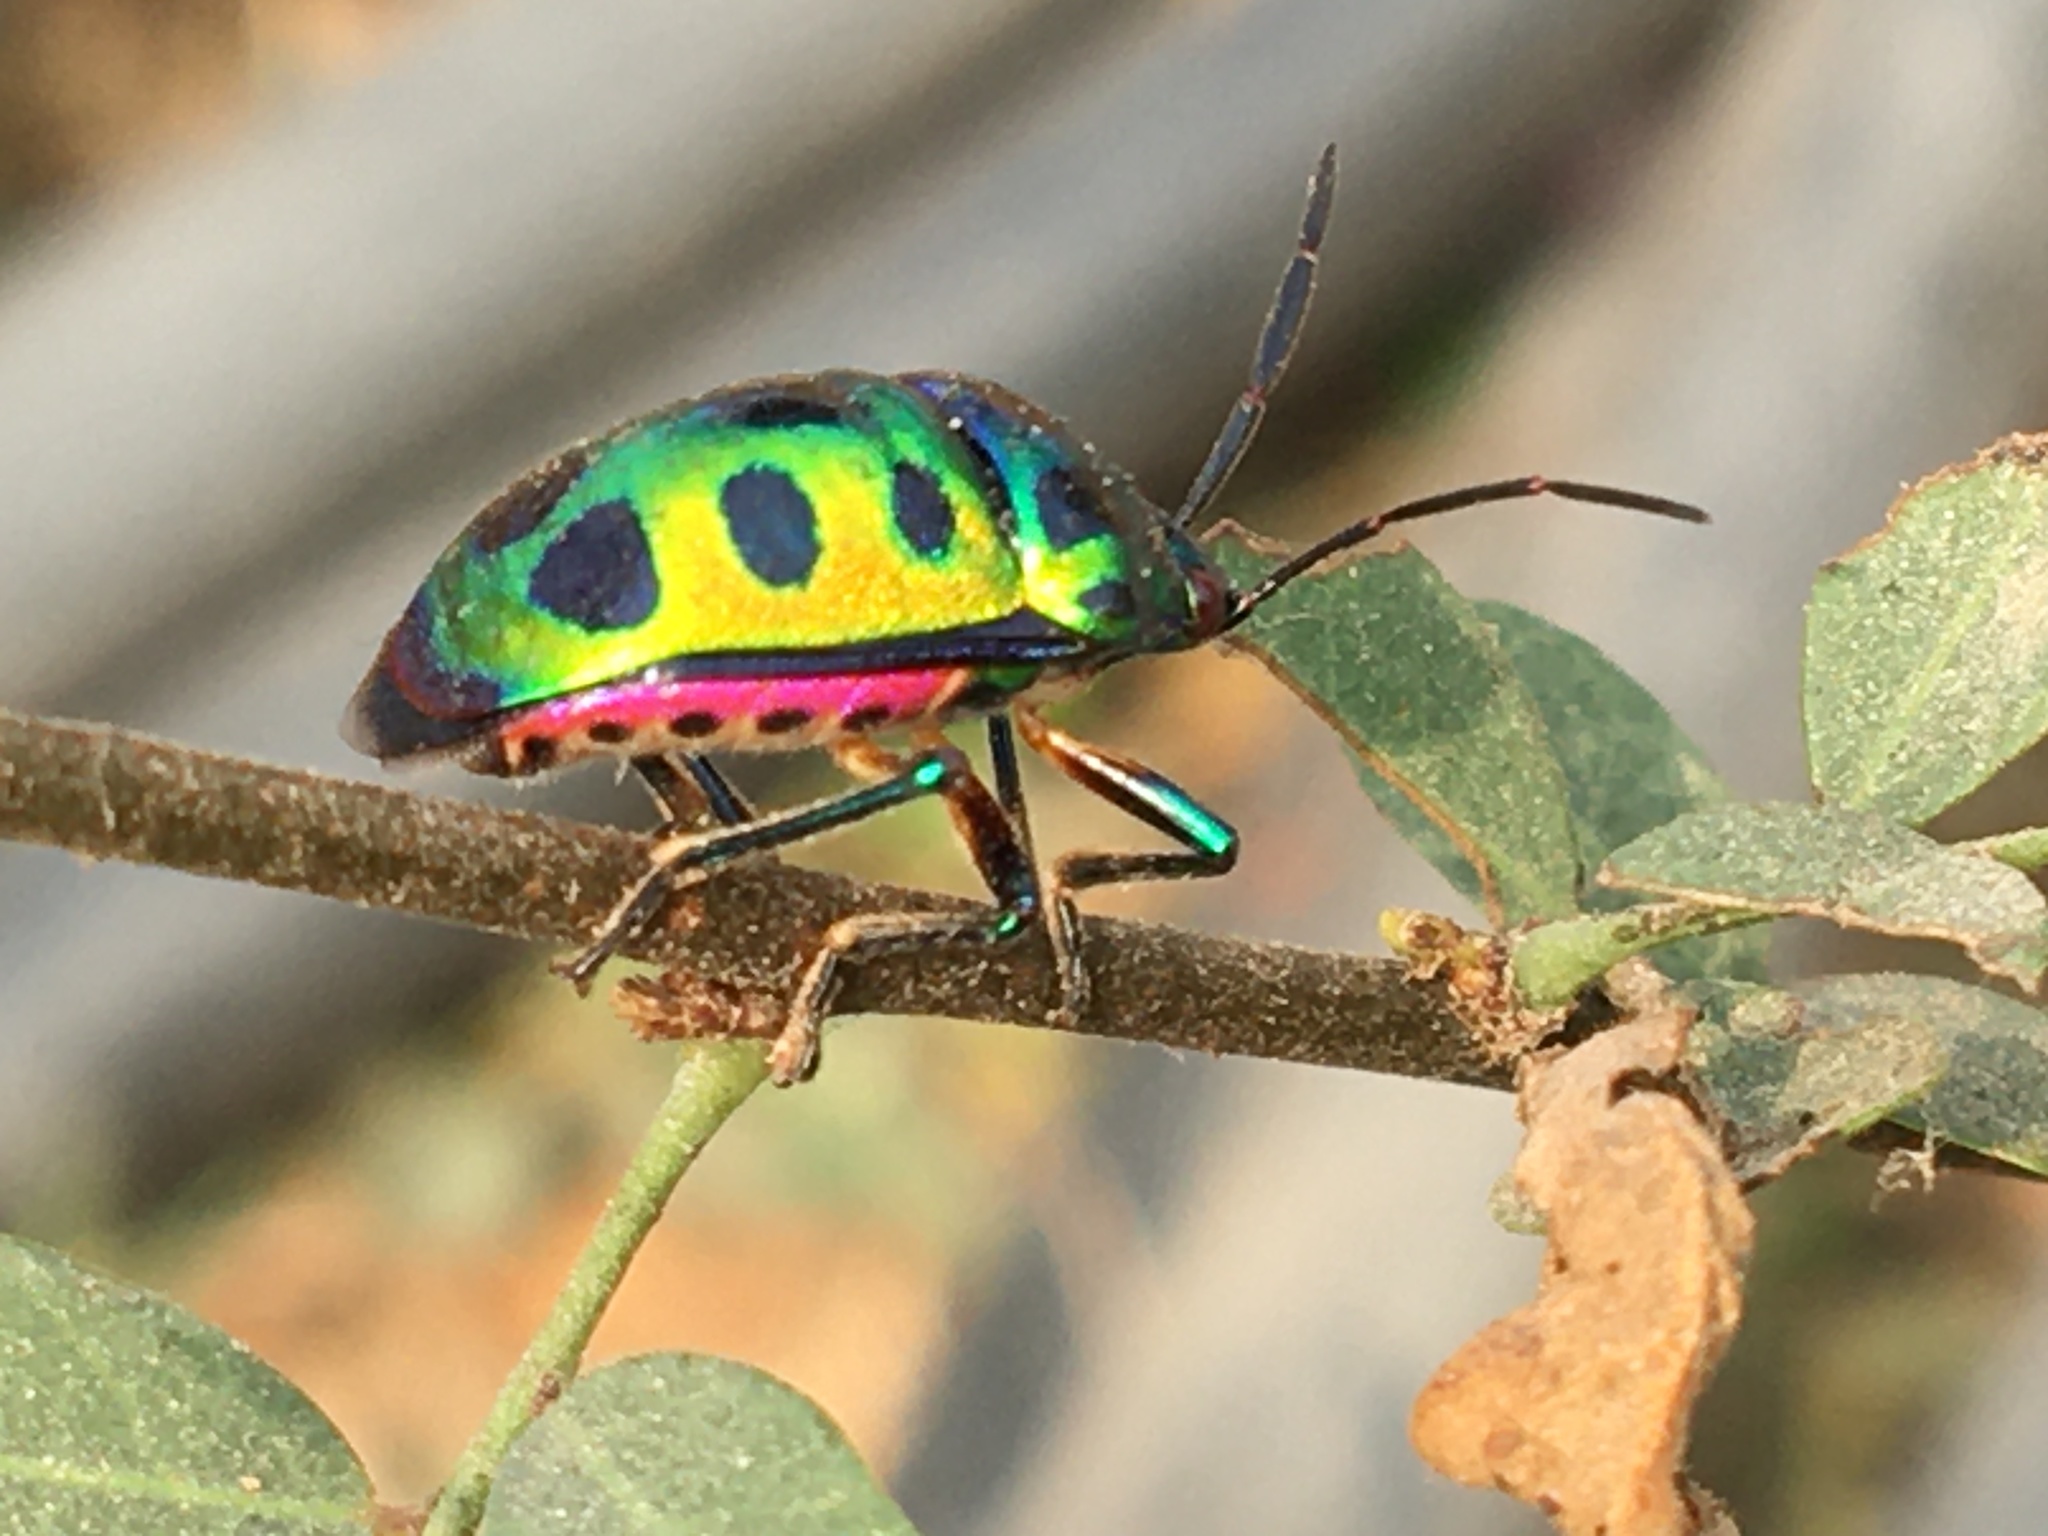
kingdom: Animalia
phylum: Arthropoda
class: Insecta
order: Hemiptera
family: Scutelleridae
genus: Chrysocoris
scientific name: Chrysocoris stollii
